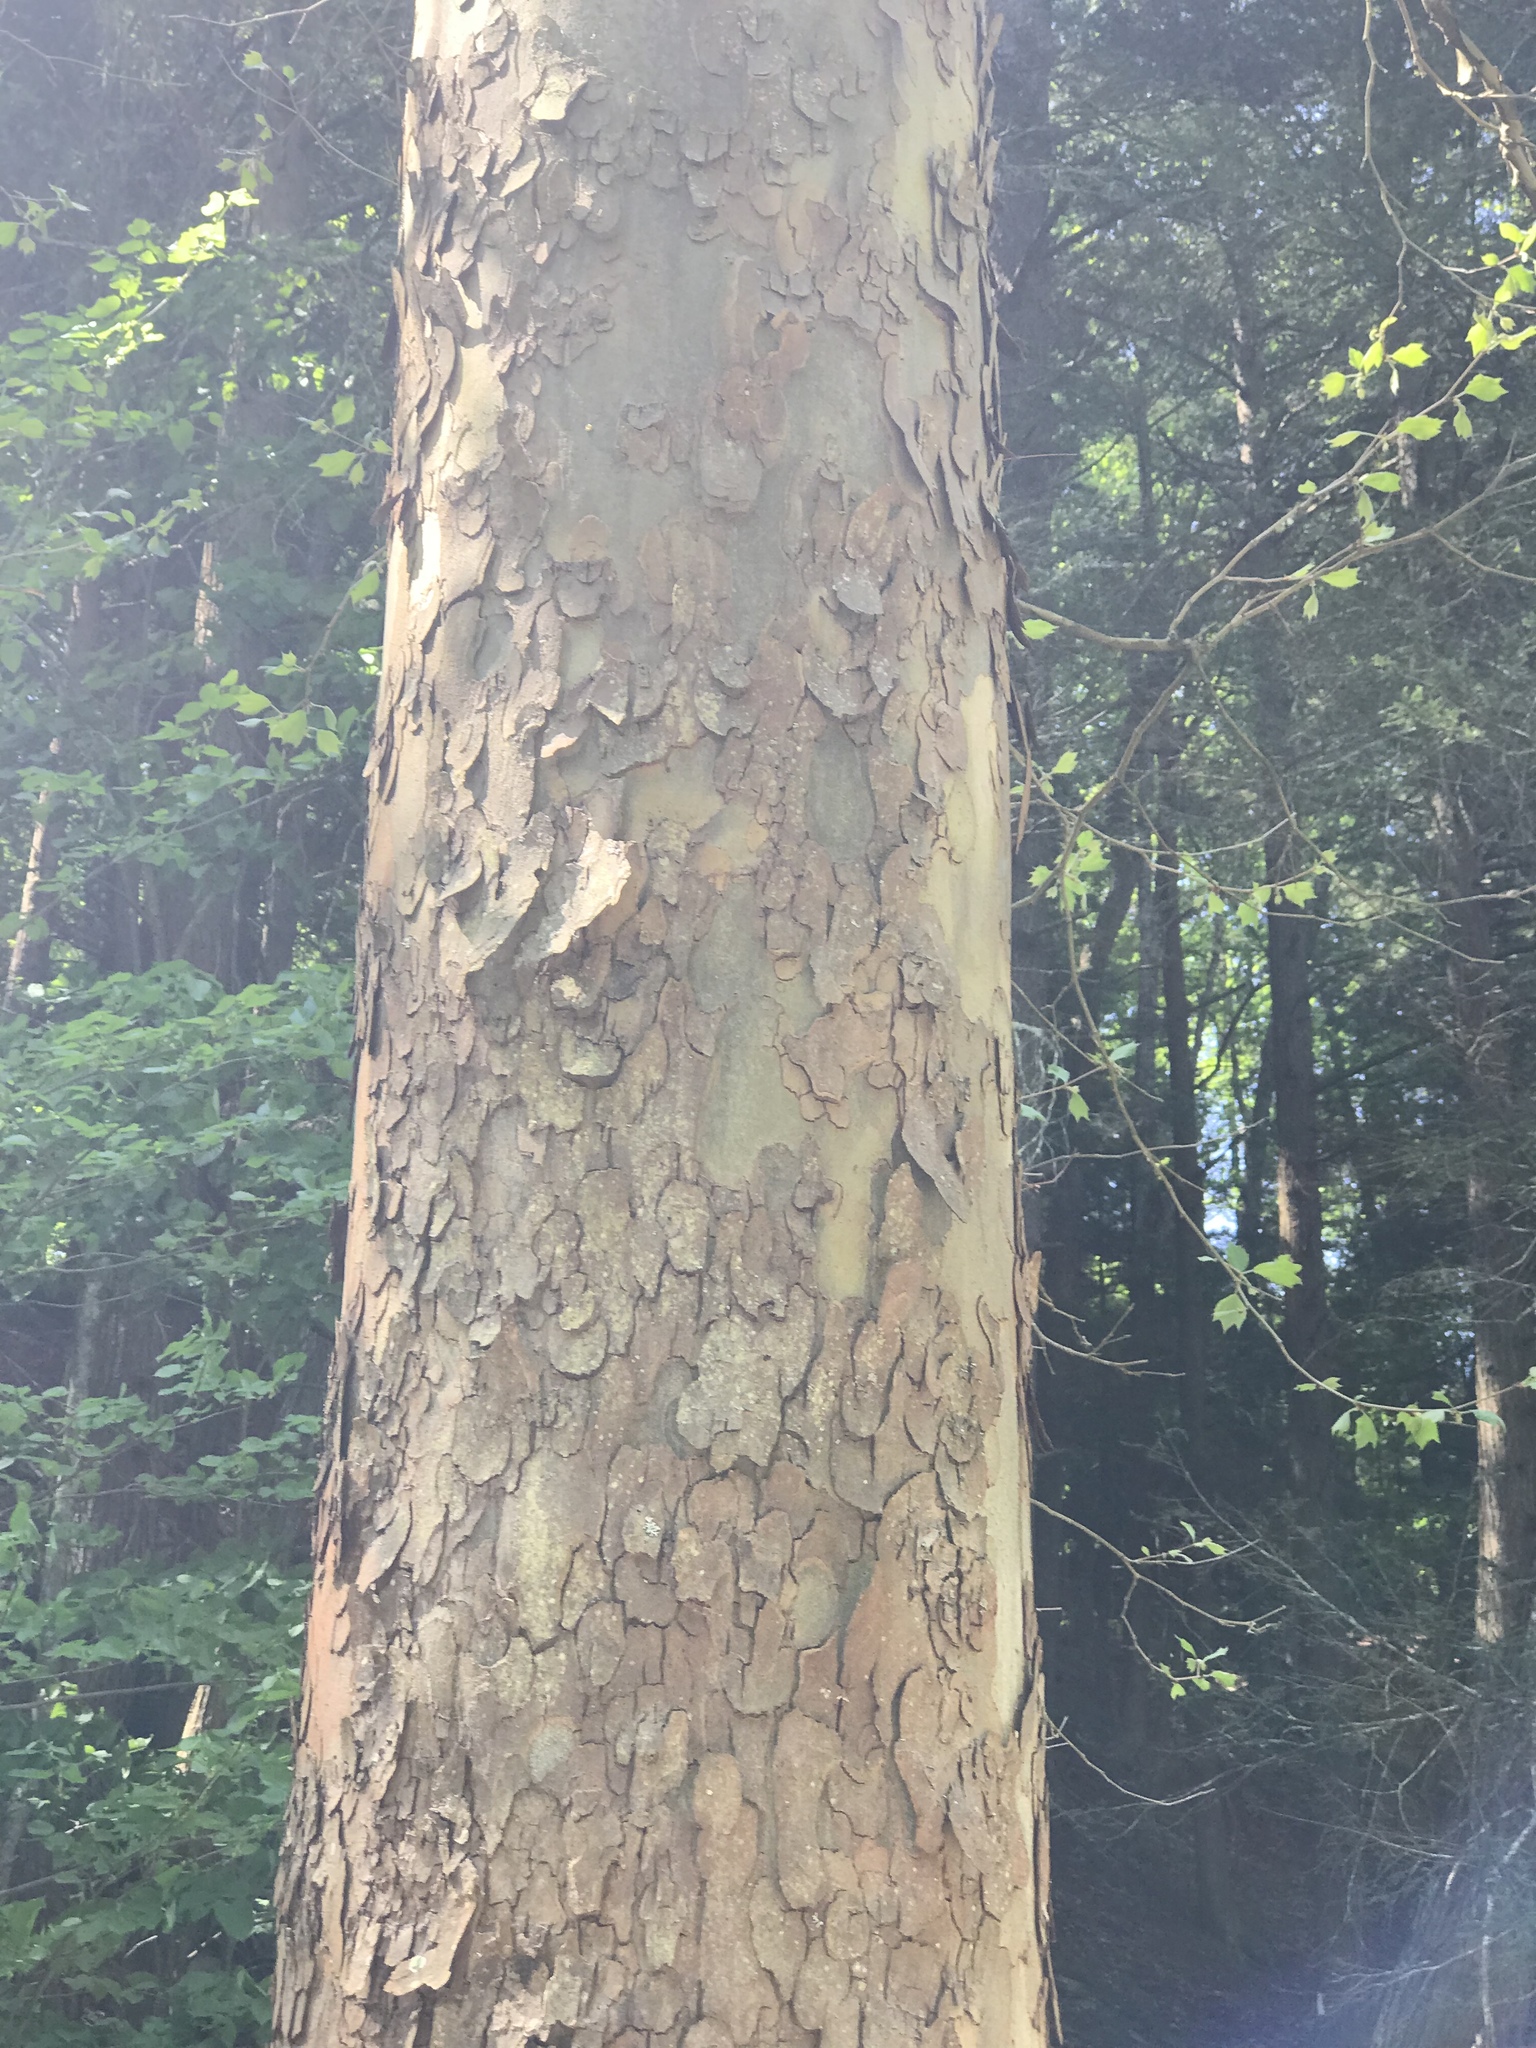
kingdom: Plantae
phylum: Tracheophyta
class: Magnoliopsida
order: Proteales
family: Platanaceae
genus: Platanus
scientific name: Platanus occidentalis
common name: American sycamore
